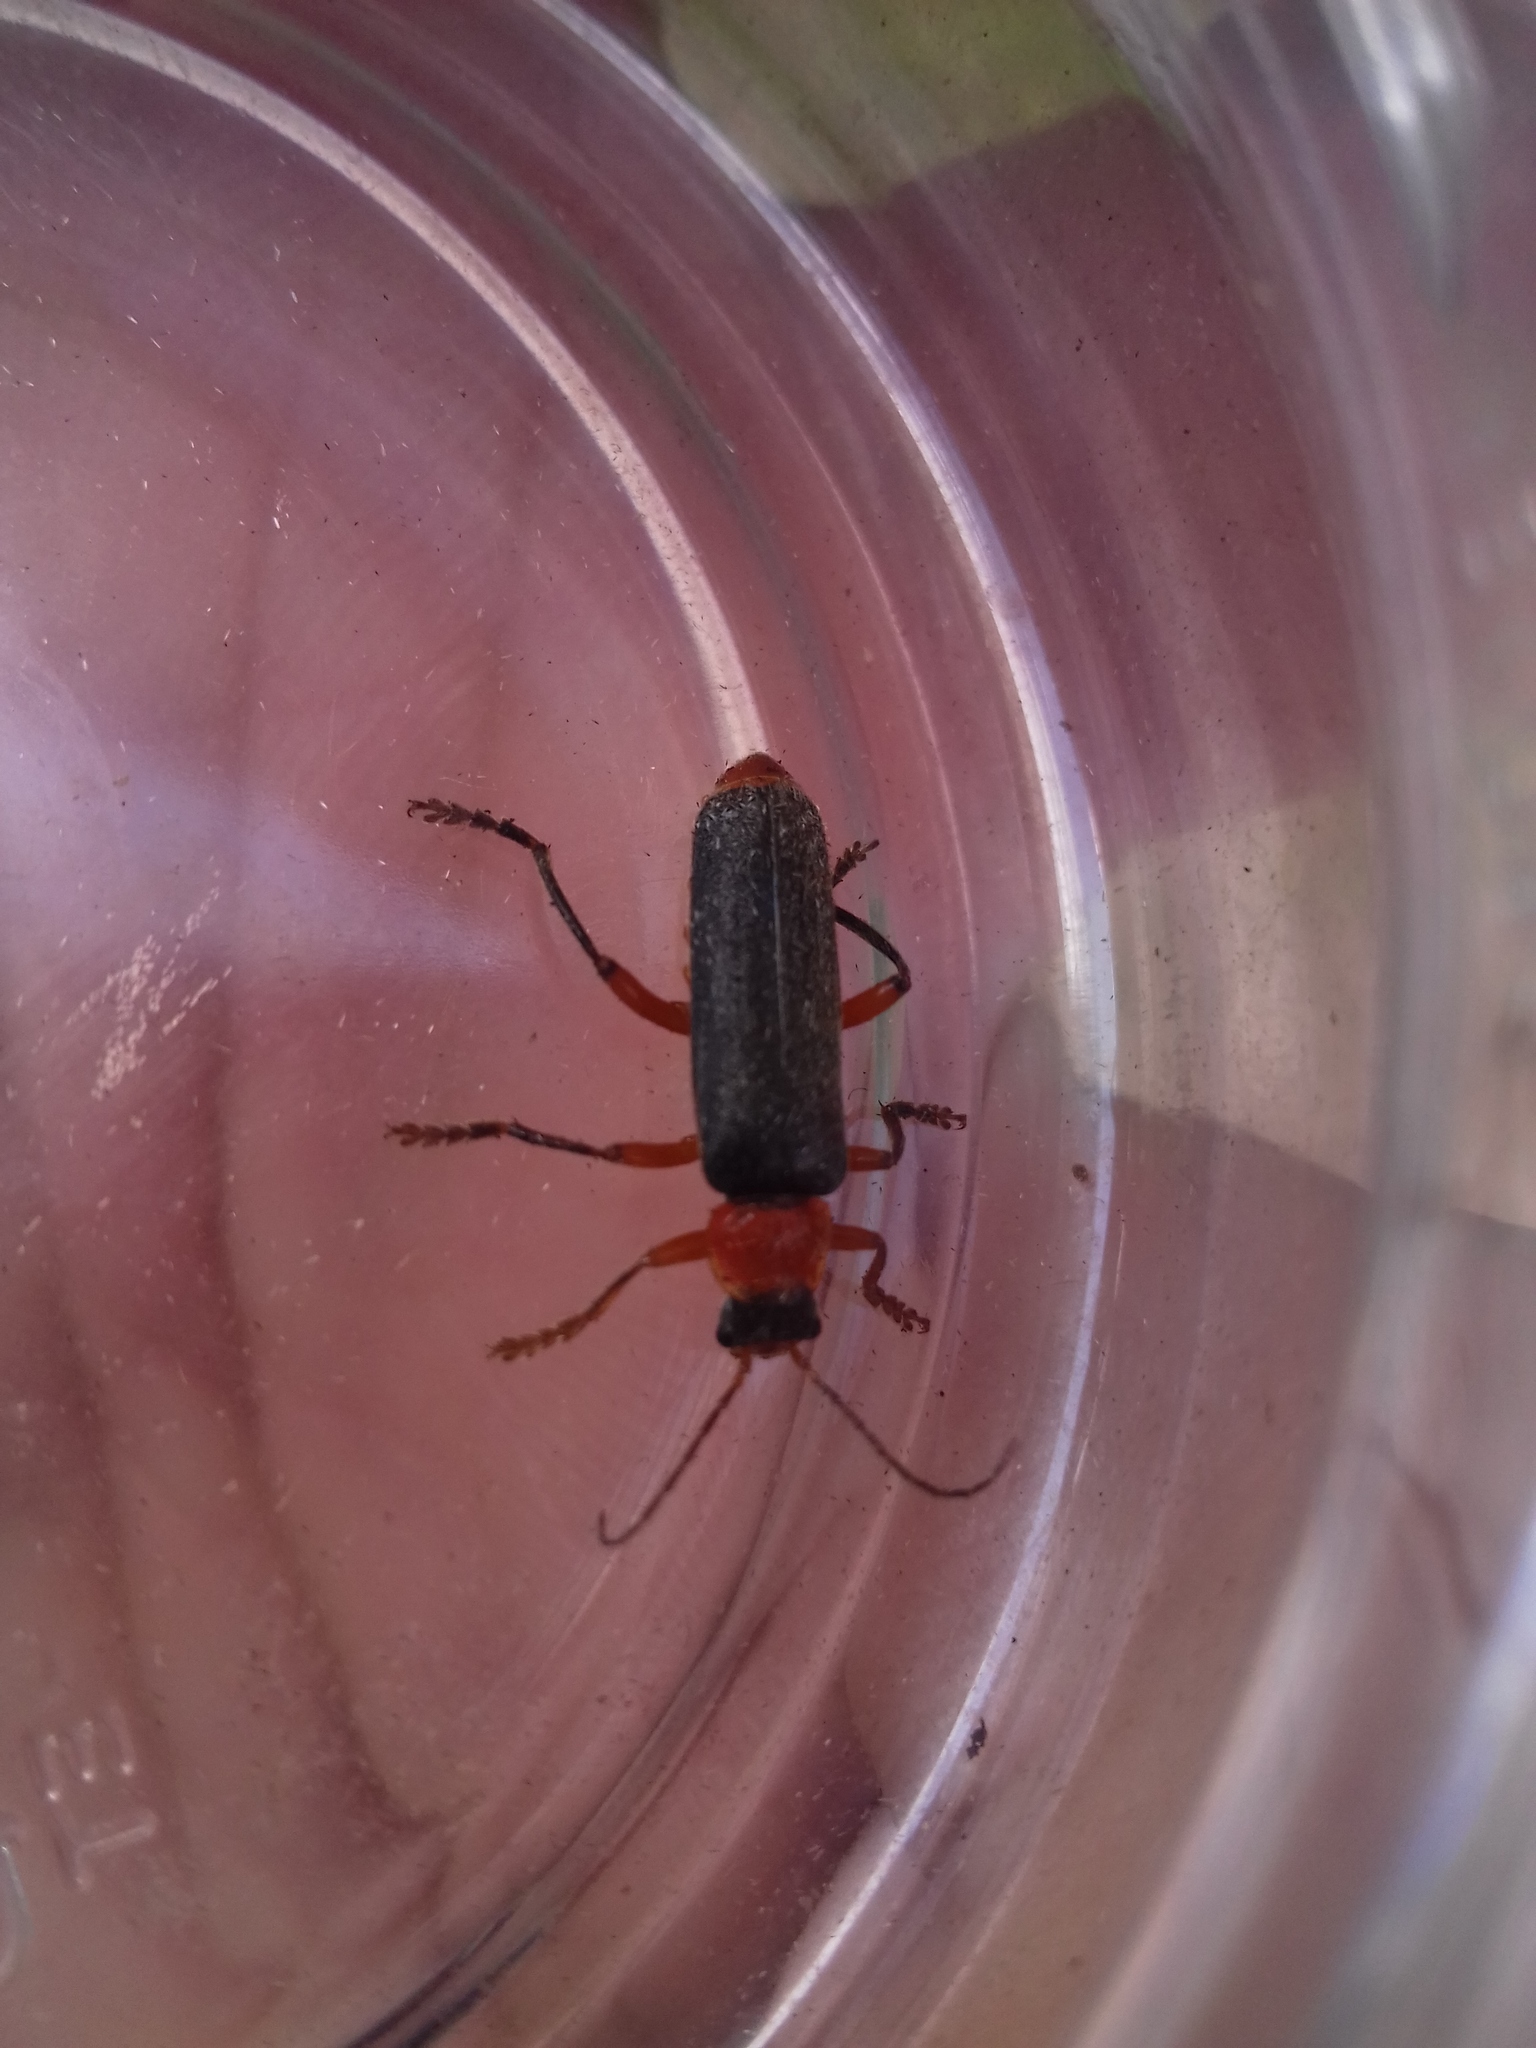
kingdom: Animalia
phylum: Arthropoda
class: Insecta
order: Coleoptera
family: Cantharidae
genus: Cantharis
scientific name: Cantharis pellucida
